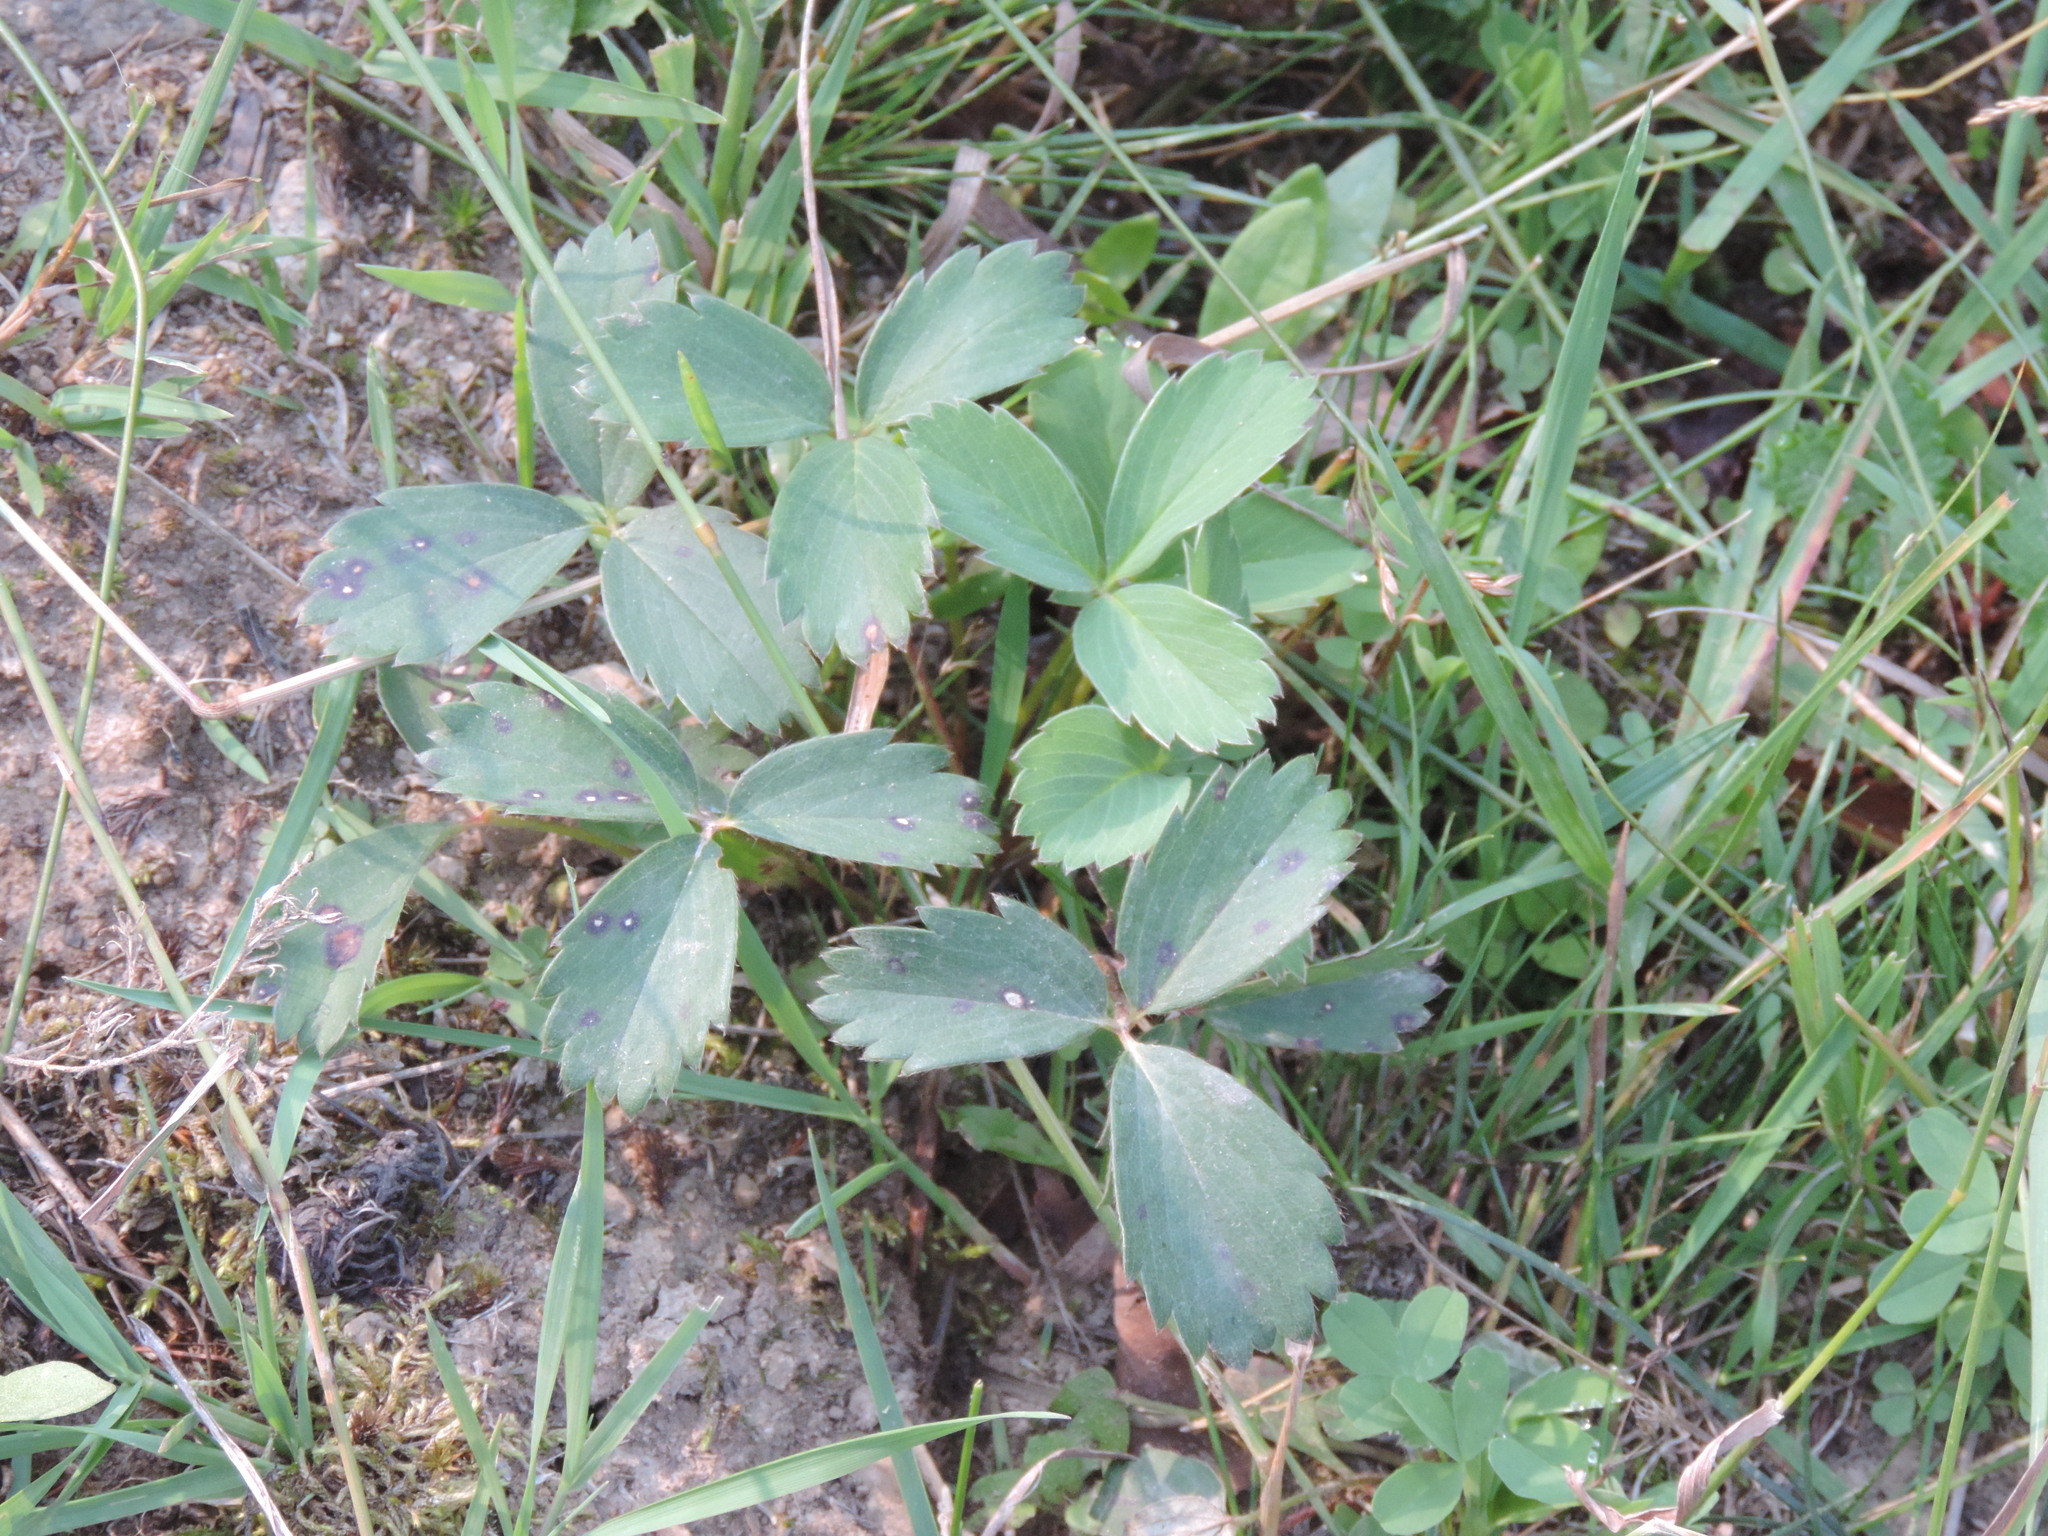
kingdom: Plantae
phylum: Tracheophyta
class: Magnoliopsida
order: Rosales
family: Rosaceae
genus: Fragaria
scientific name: Fragaria virginiana
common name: Thickleaved wild strawberry
